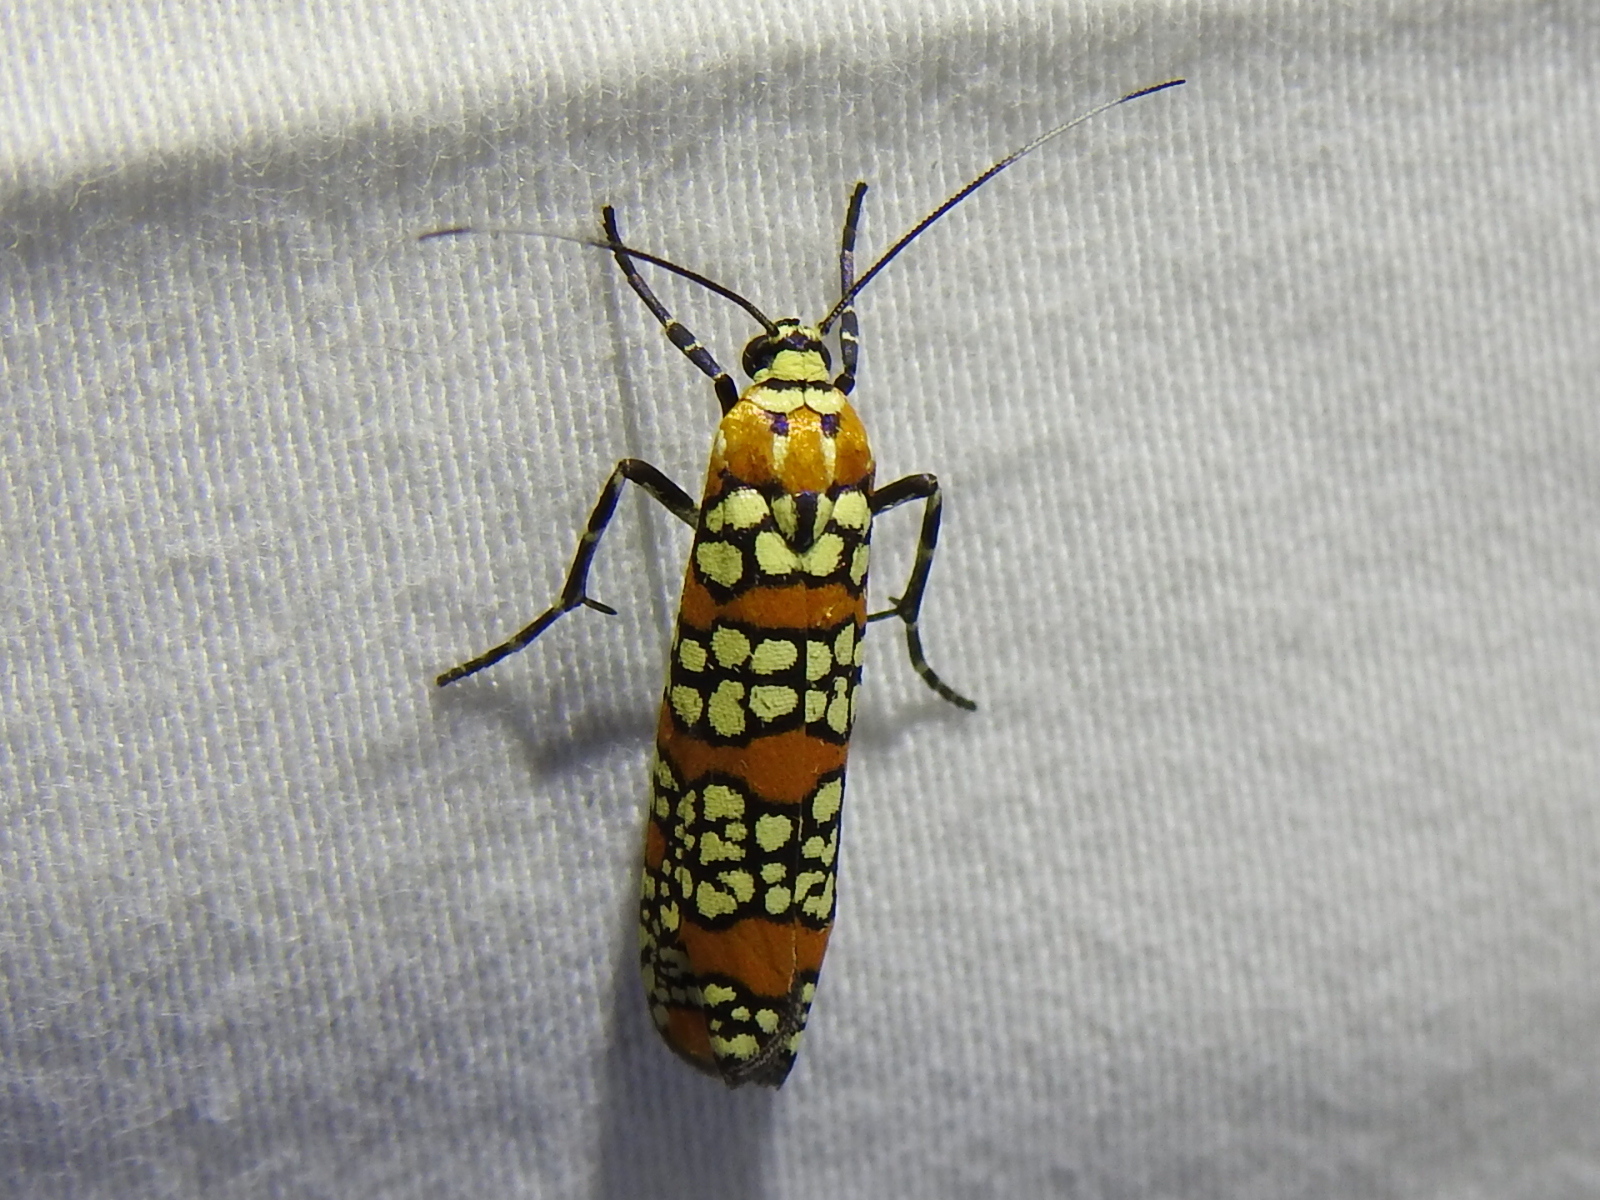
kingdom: Animalia
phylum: Arthropoda
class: Insecta
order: Lepidoptera
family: Attevidae
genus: Atteva
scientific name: Atteva punctella
